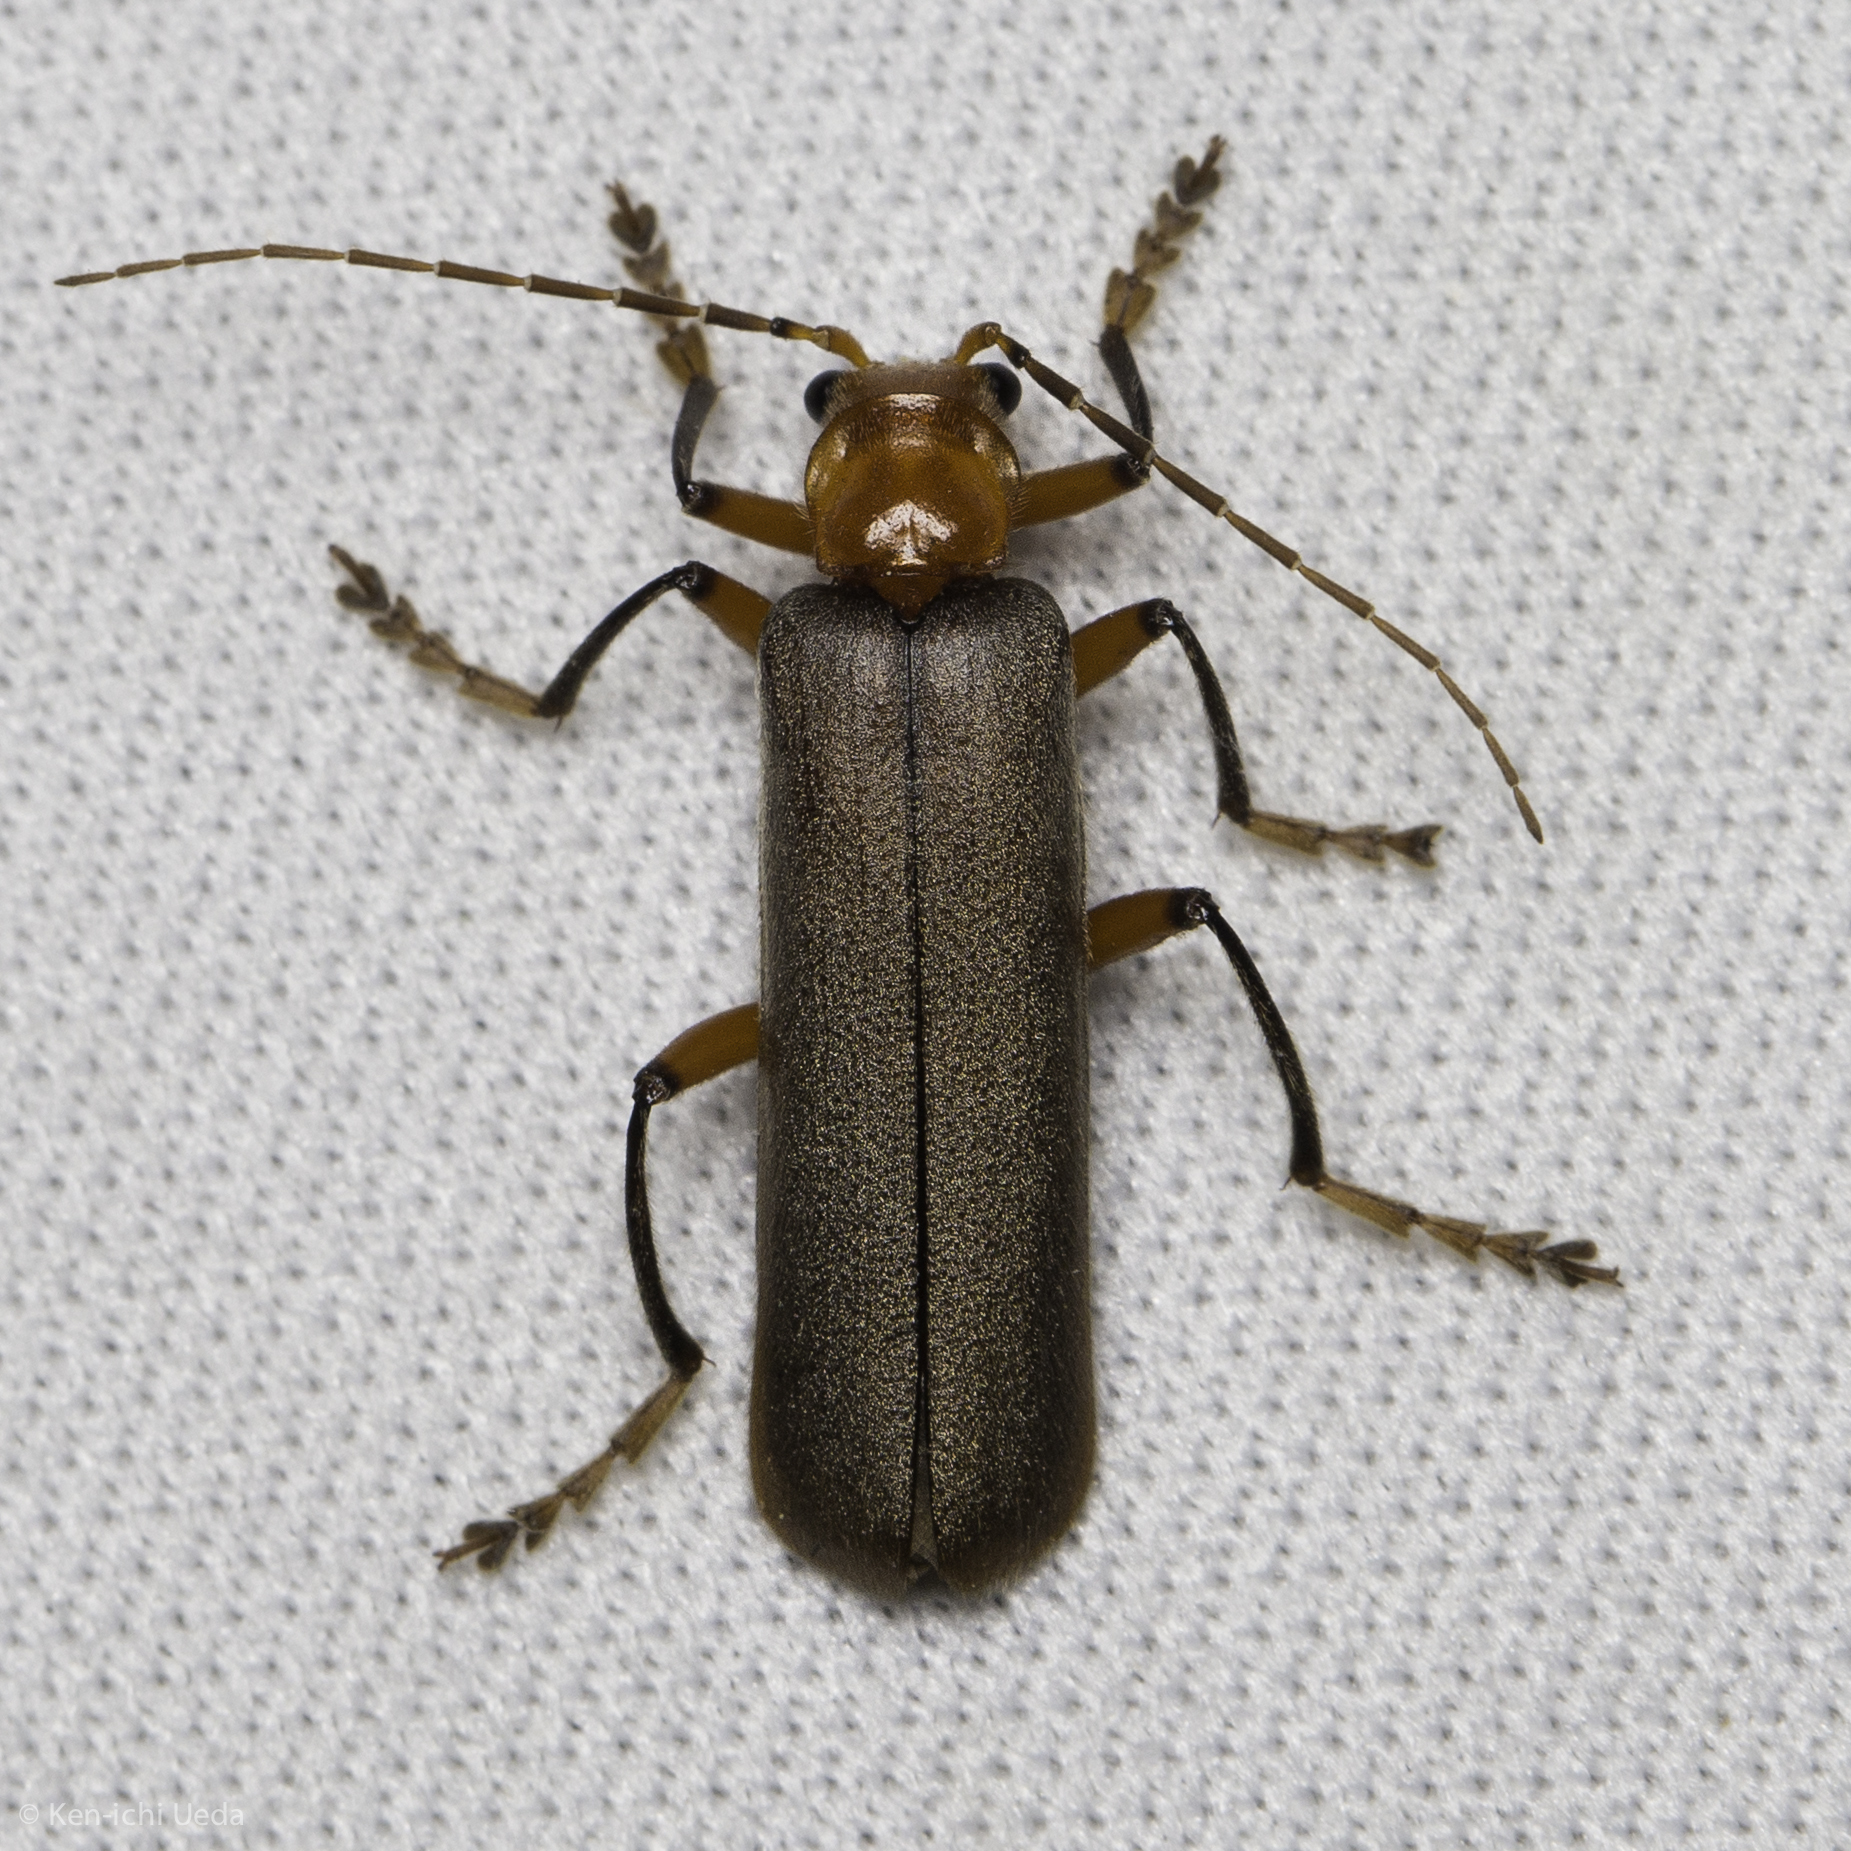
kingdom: Animalia
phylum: Arthropoda
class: Insecta
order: Coleoptera
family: Cantharidae
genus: Pacificanthia
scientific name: Pacificanthia consors
